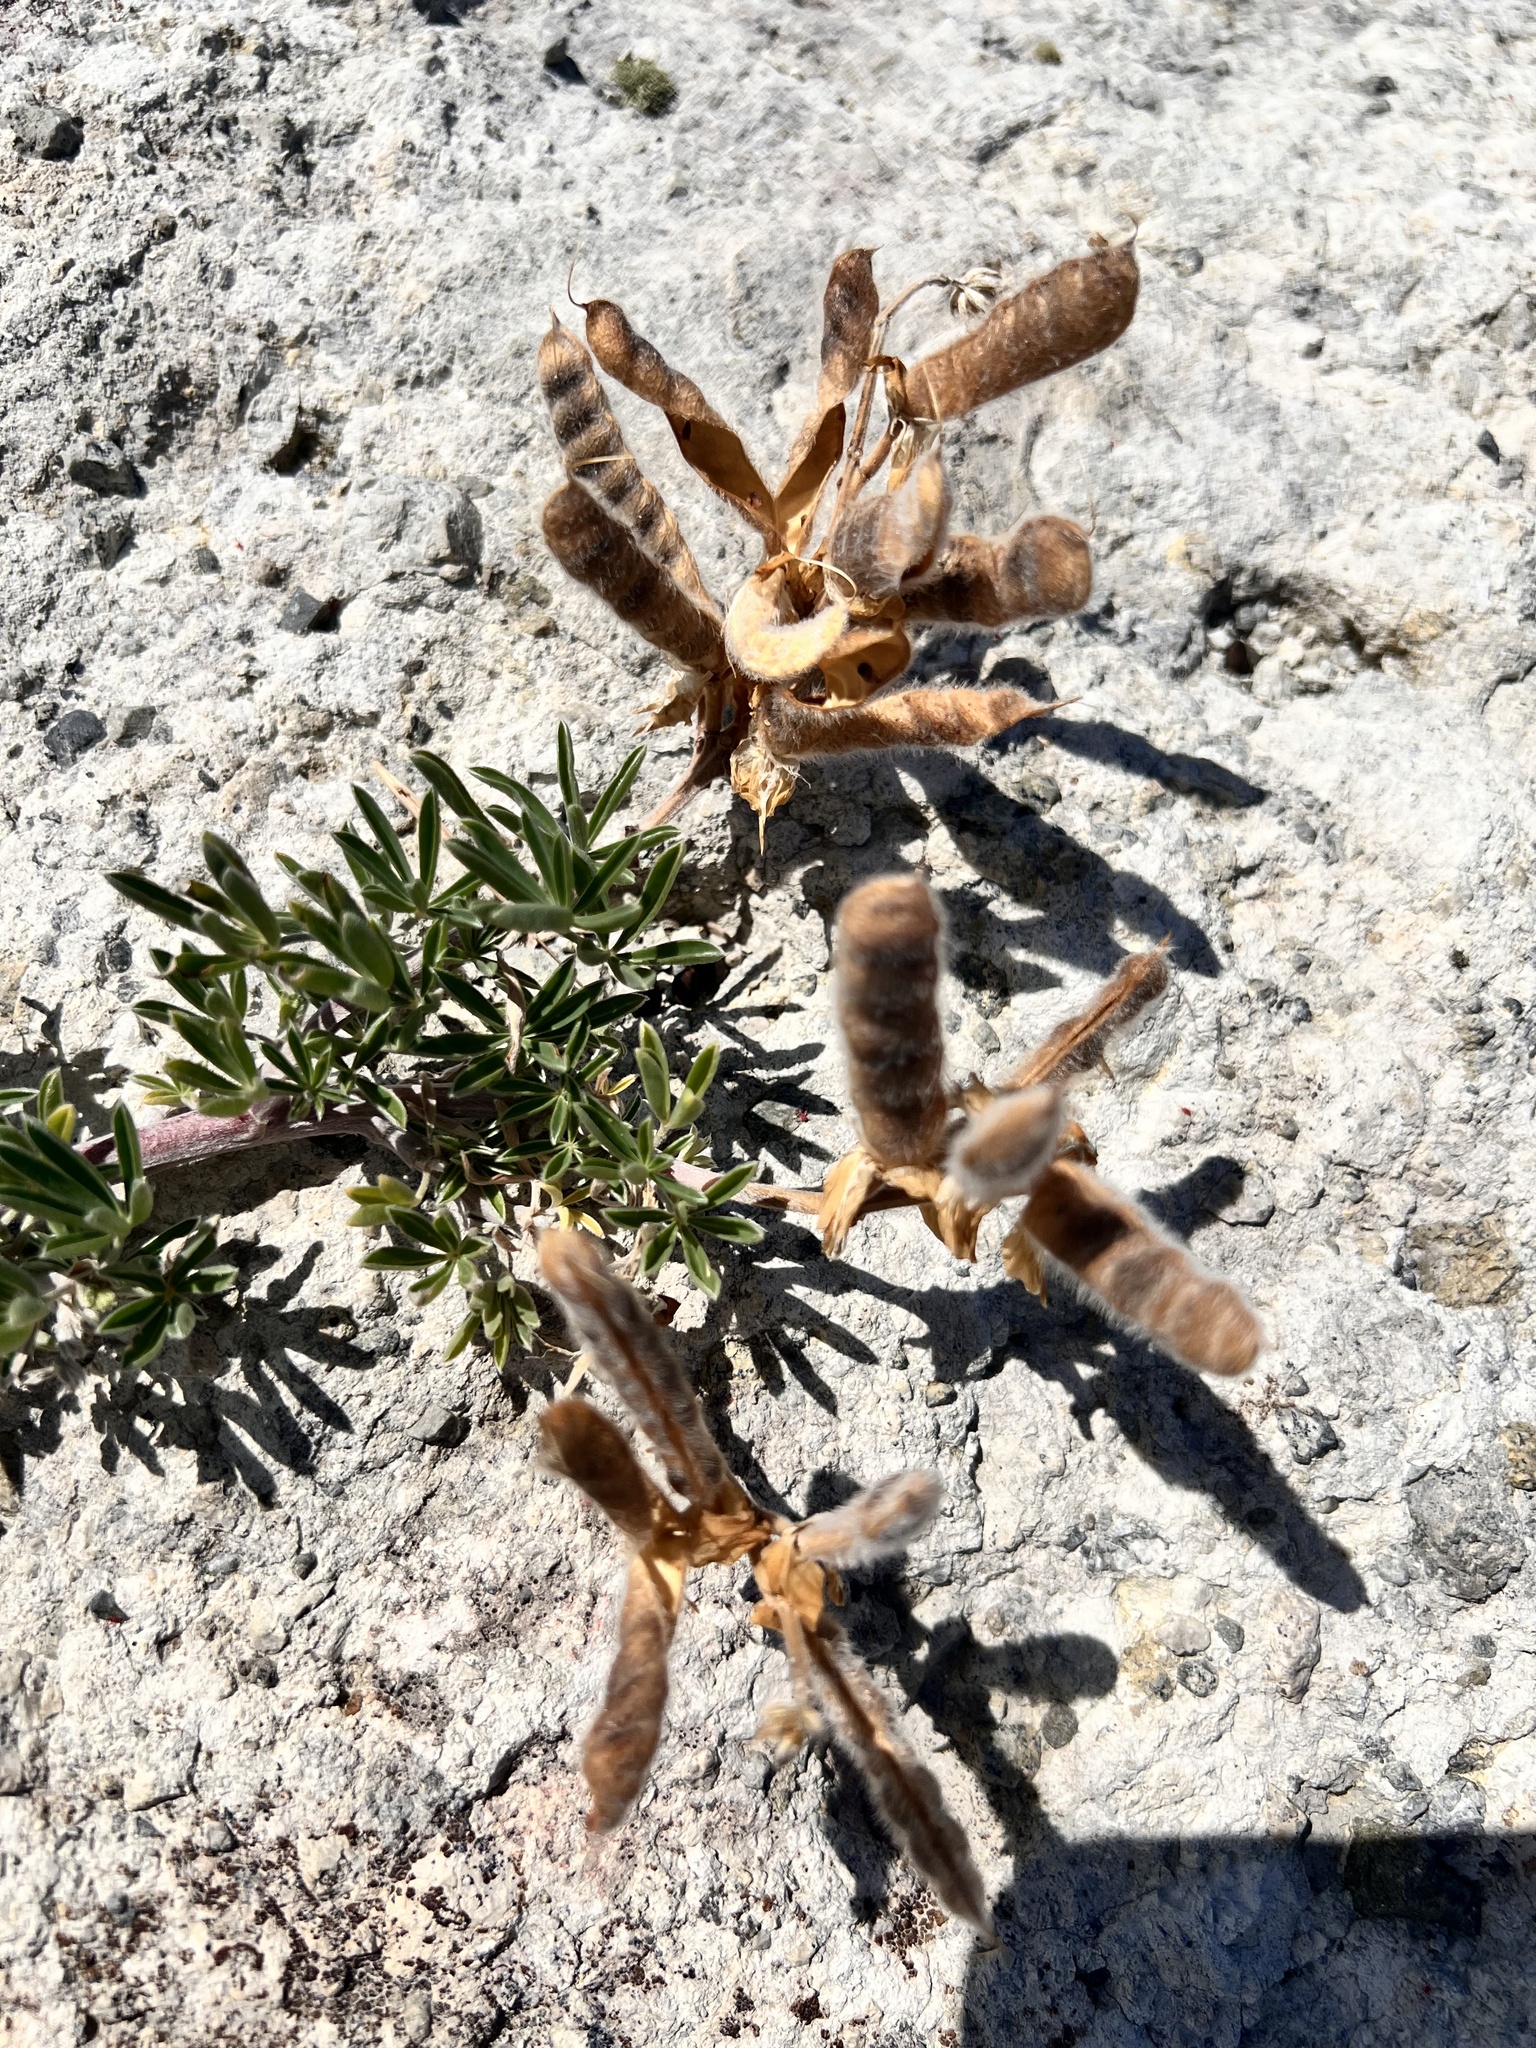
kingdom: Plantae
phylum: Tracheophyta
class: Magnoliopsida
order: Fabales
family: Fabaceae
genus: Lupinus
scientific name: Lupinus arboreus
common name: Yellow bush lupine
